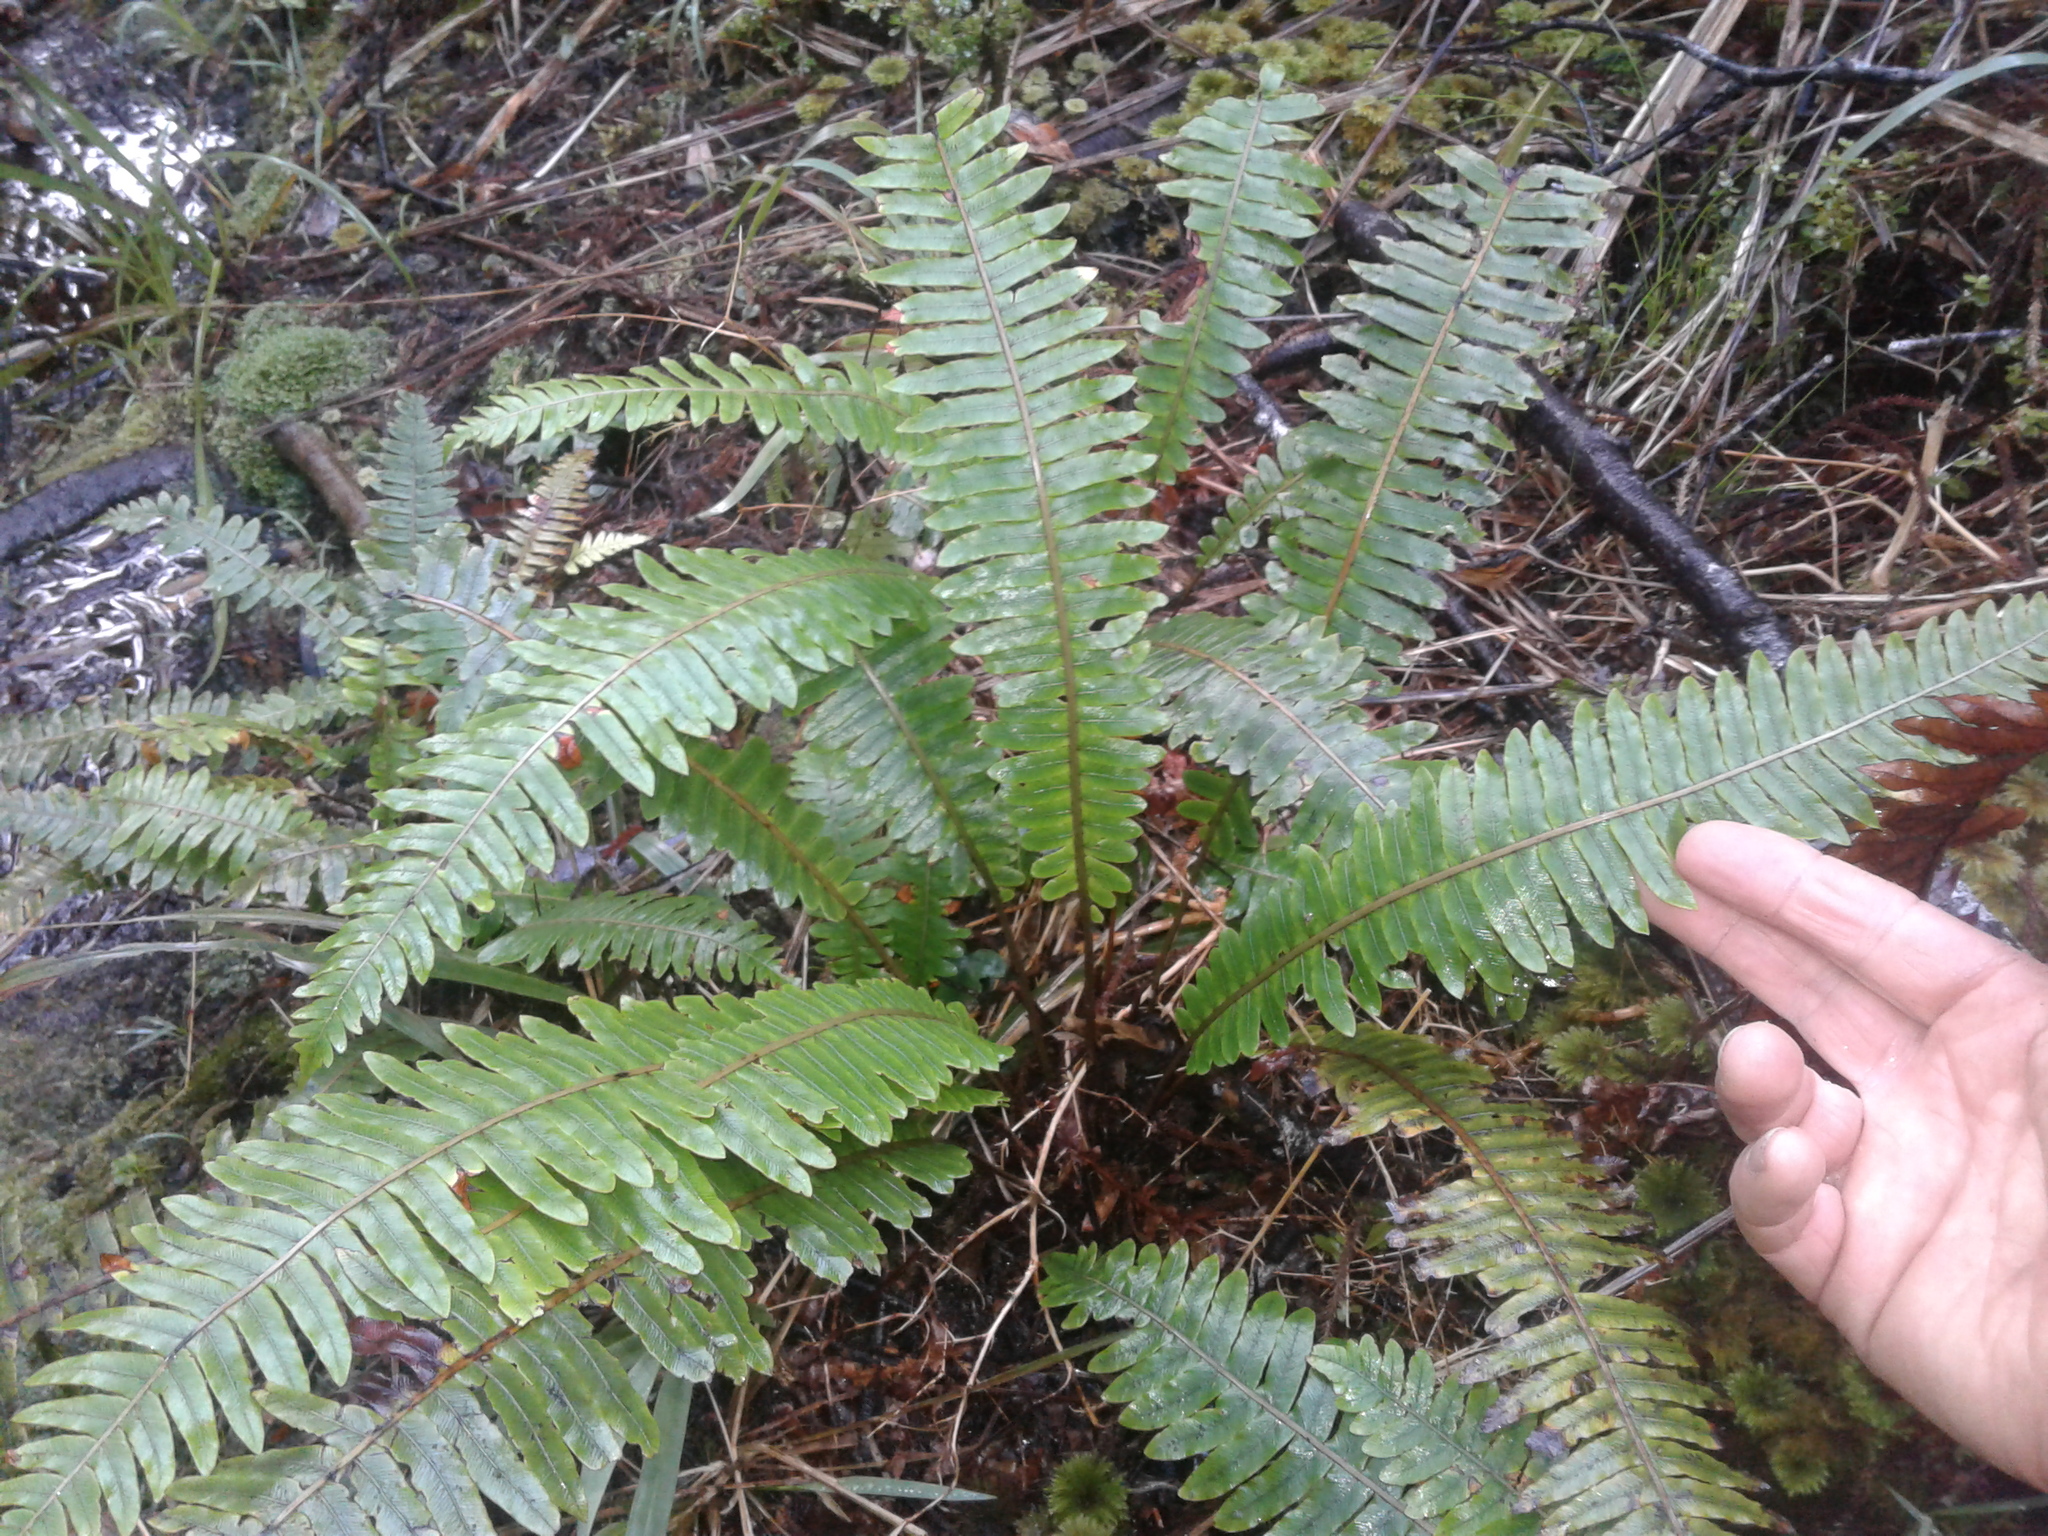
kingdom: Plantae
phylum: Tracheophyta
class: Polypodiopsida
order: Polypodiales
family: Blechnaceae
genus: Lomaria
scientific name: Lomaria discolor
